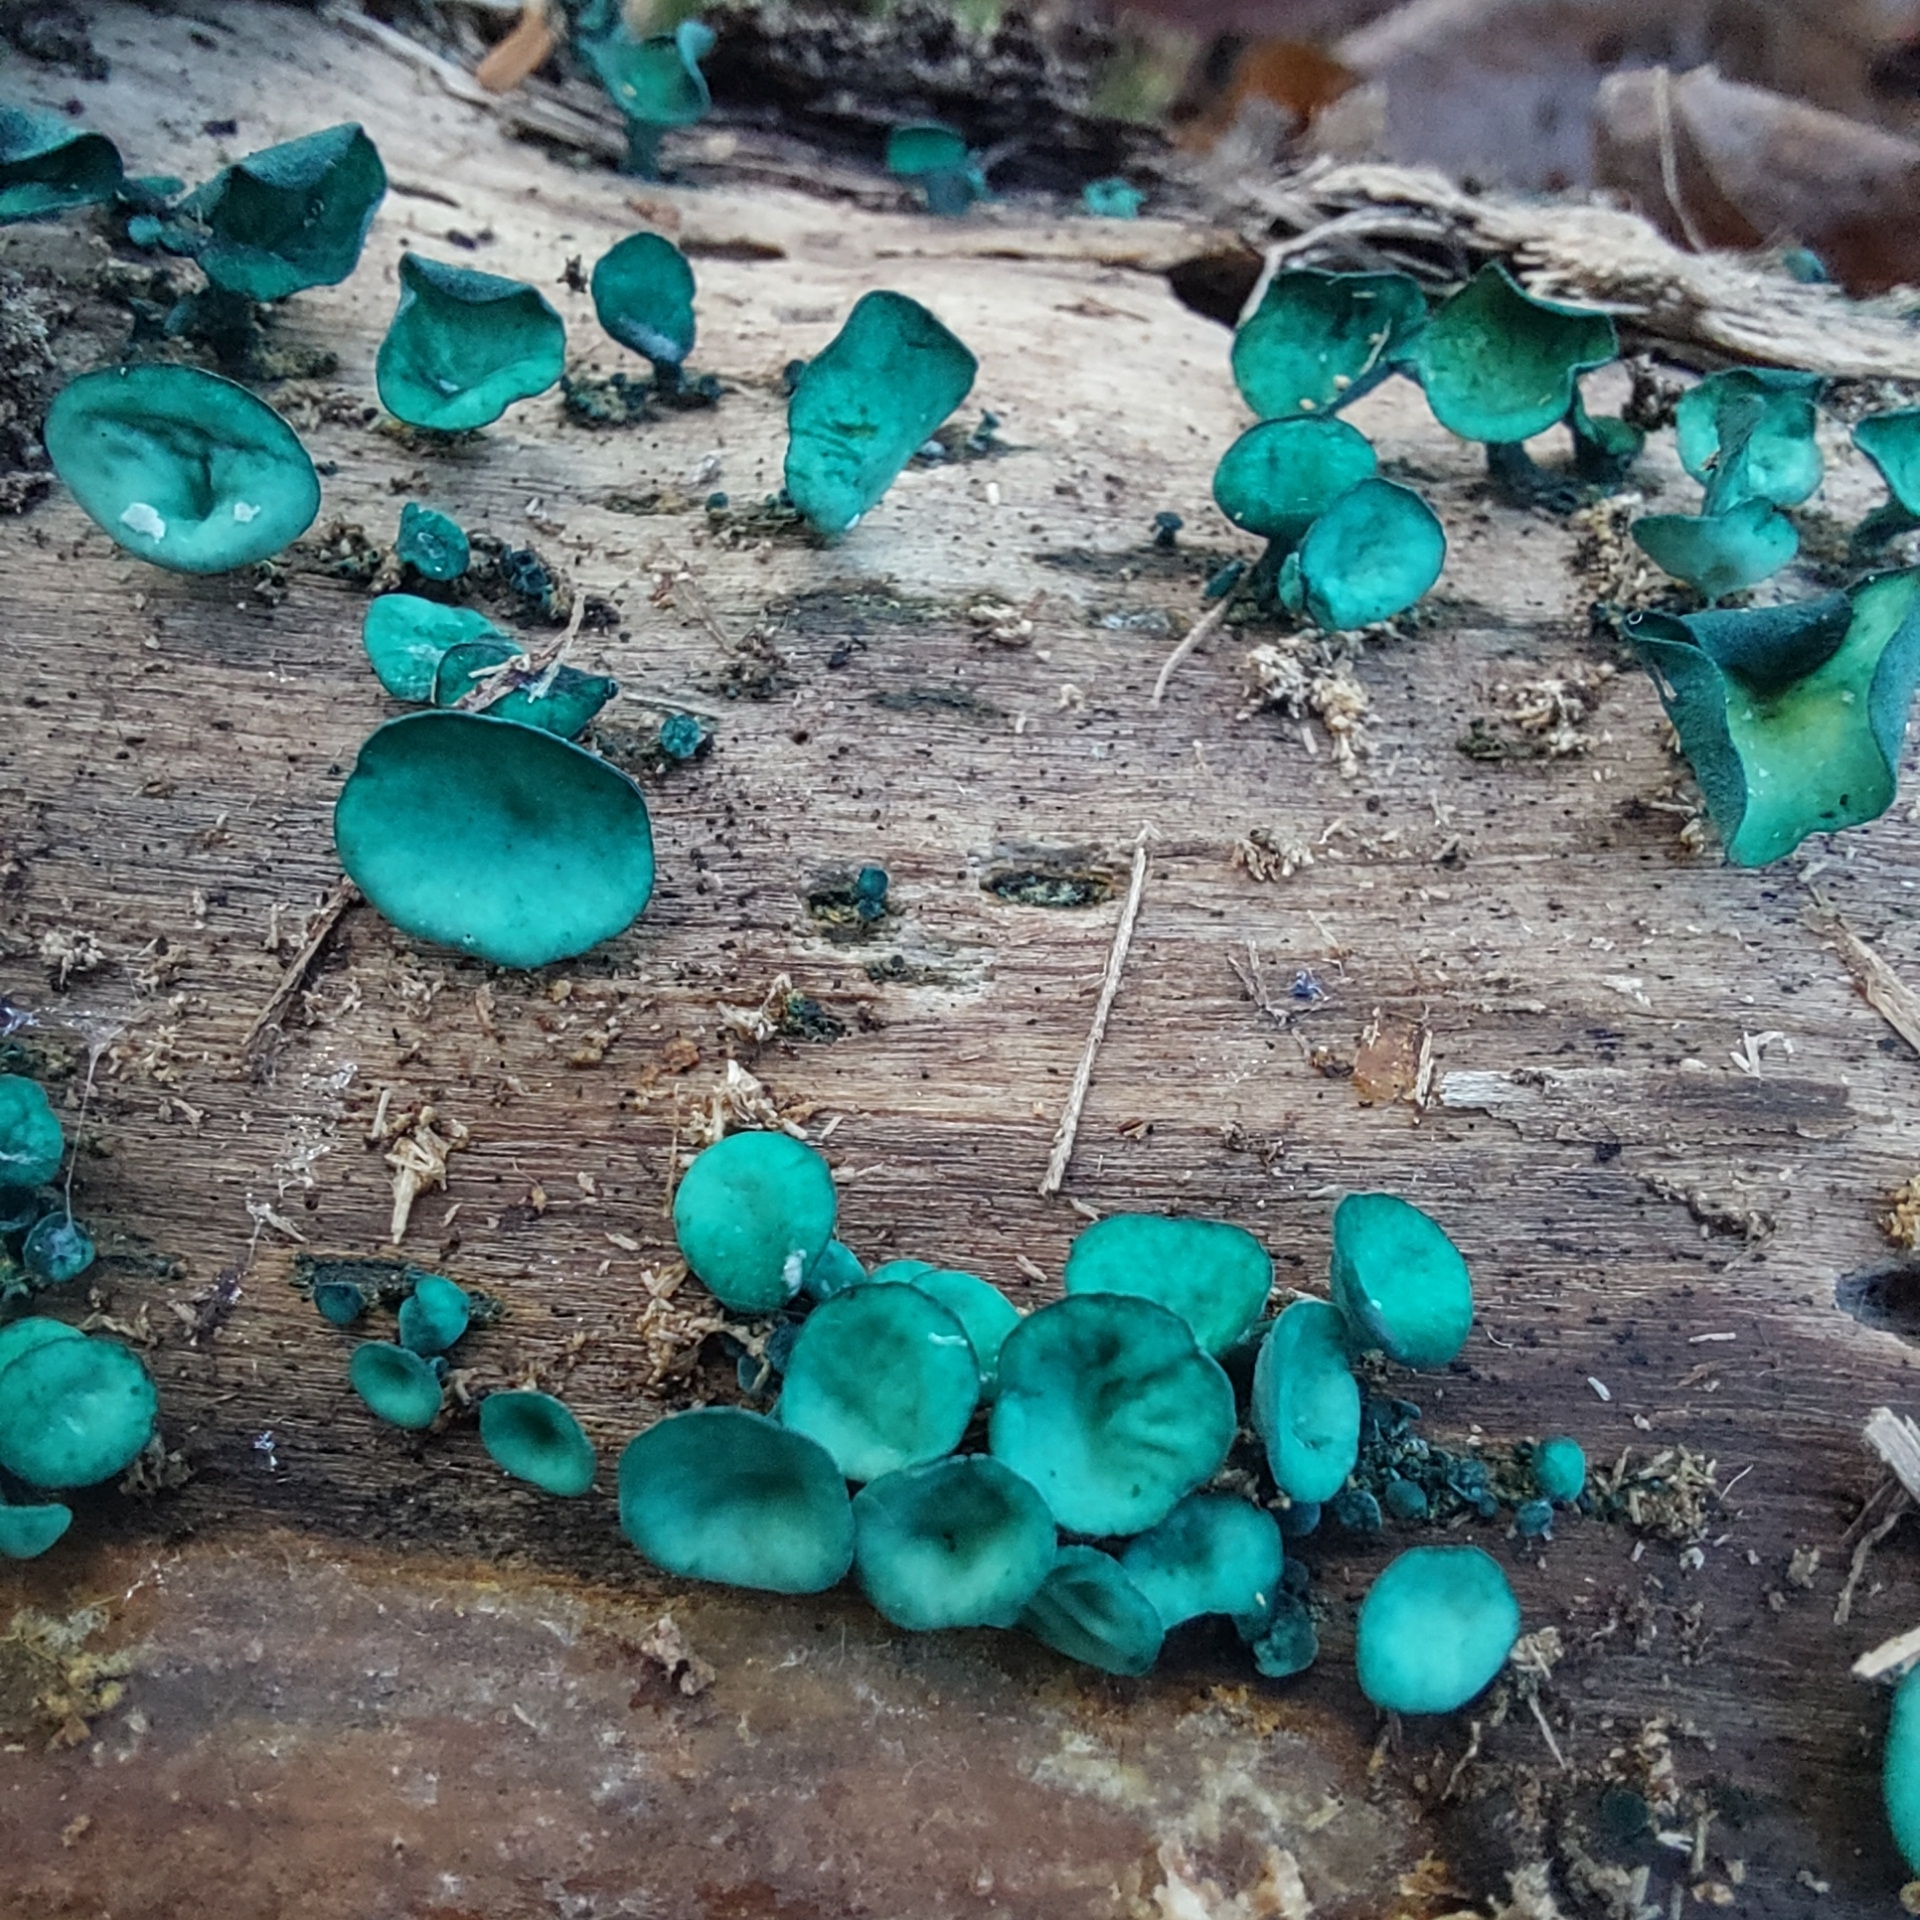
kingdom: Fungi
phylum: Ascomycota
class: Leotiomycetes
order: Helotiales
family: Chlorociboriaceae
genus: Chlorociboria
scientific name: Chlorociboria aeruginascens
